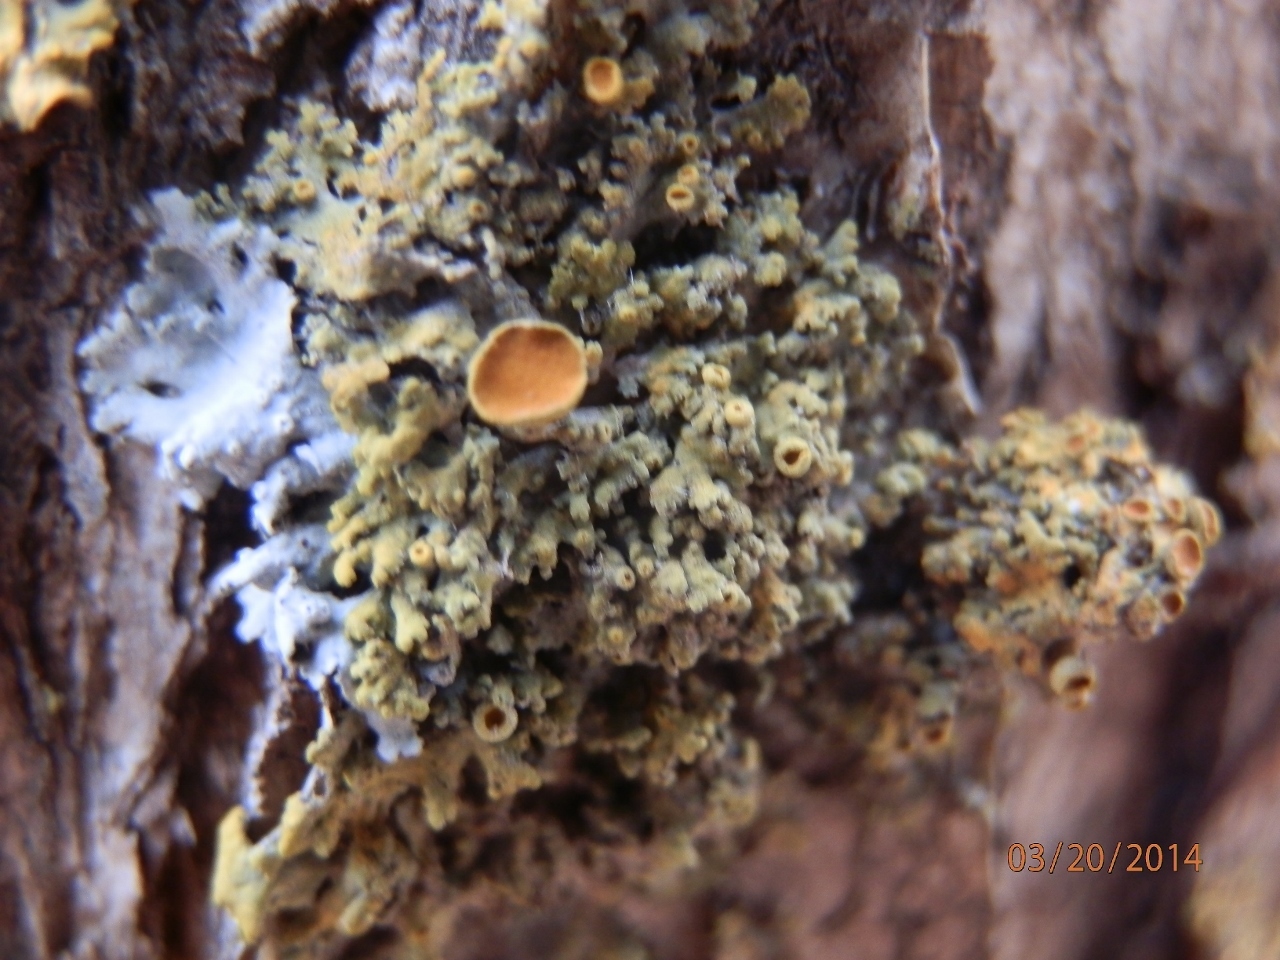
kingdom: Fungi
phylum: Ascomycota
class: Lecanoromycetes
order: Teloschistales
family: Teloschistaceae
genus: Gallowayella
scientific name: Gallowayella montana
